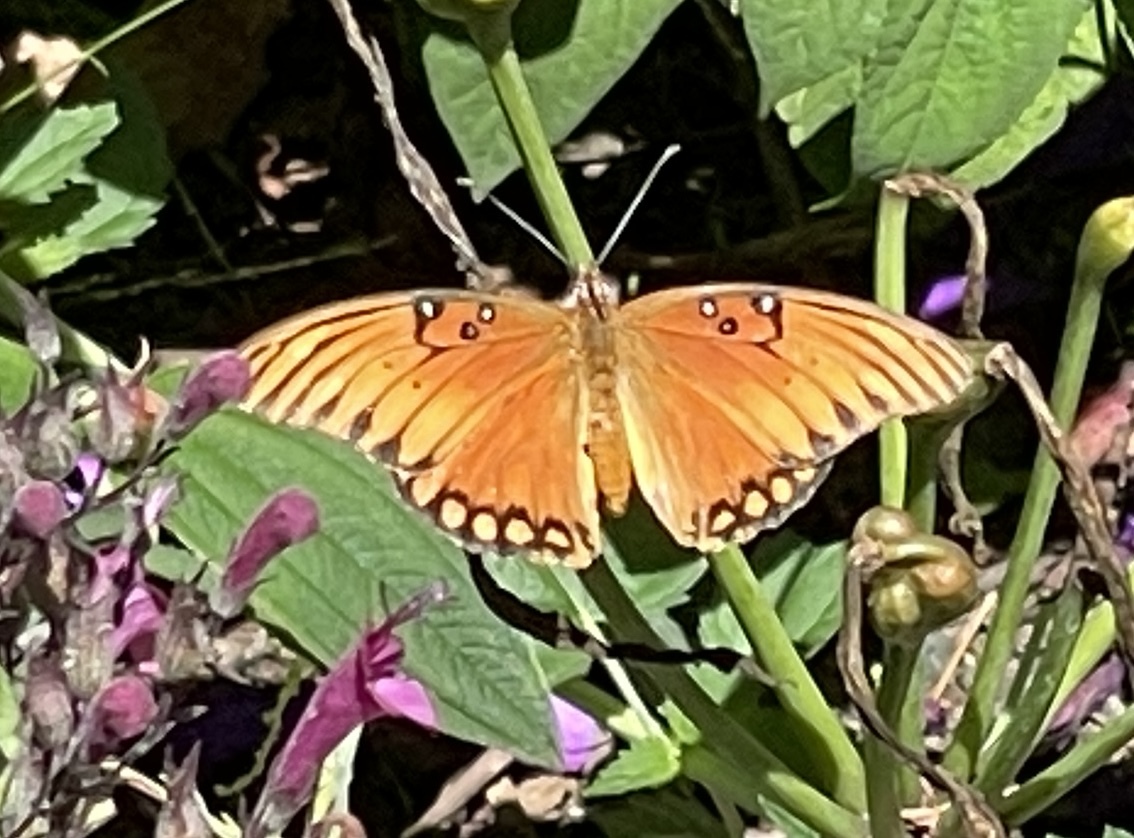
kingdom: Animalia
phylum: Arthropoda
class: Insecta
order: Lepidoptera
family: Nymphalidae
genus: Dione
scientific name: Dione vanillae
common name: Gulf fritillary
